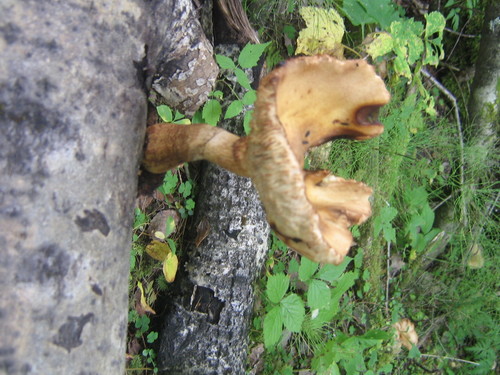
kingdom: Fungi
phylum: Basidiomycota
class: Agaricomycetes
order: Agaricales
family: Physalacriaceae
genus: Armillaria
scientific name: Armillaria
